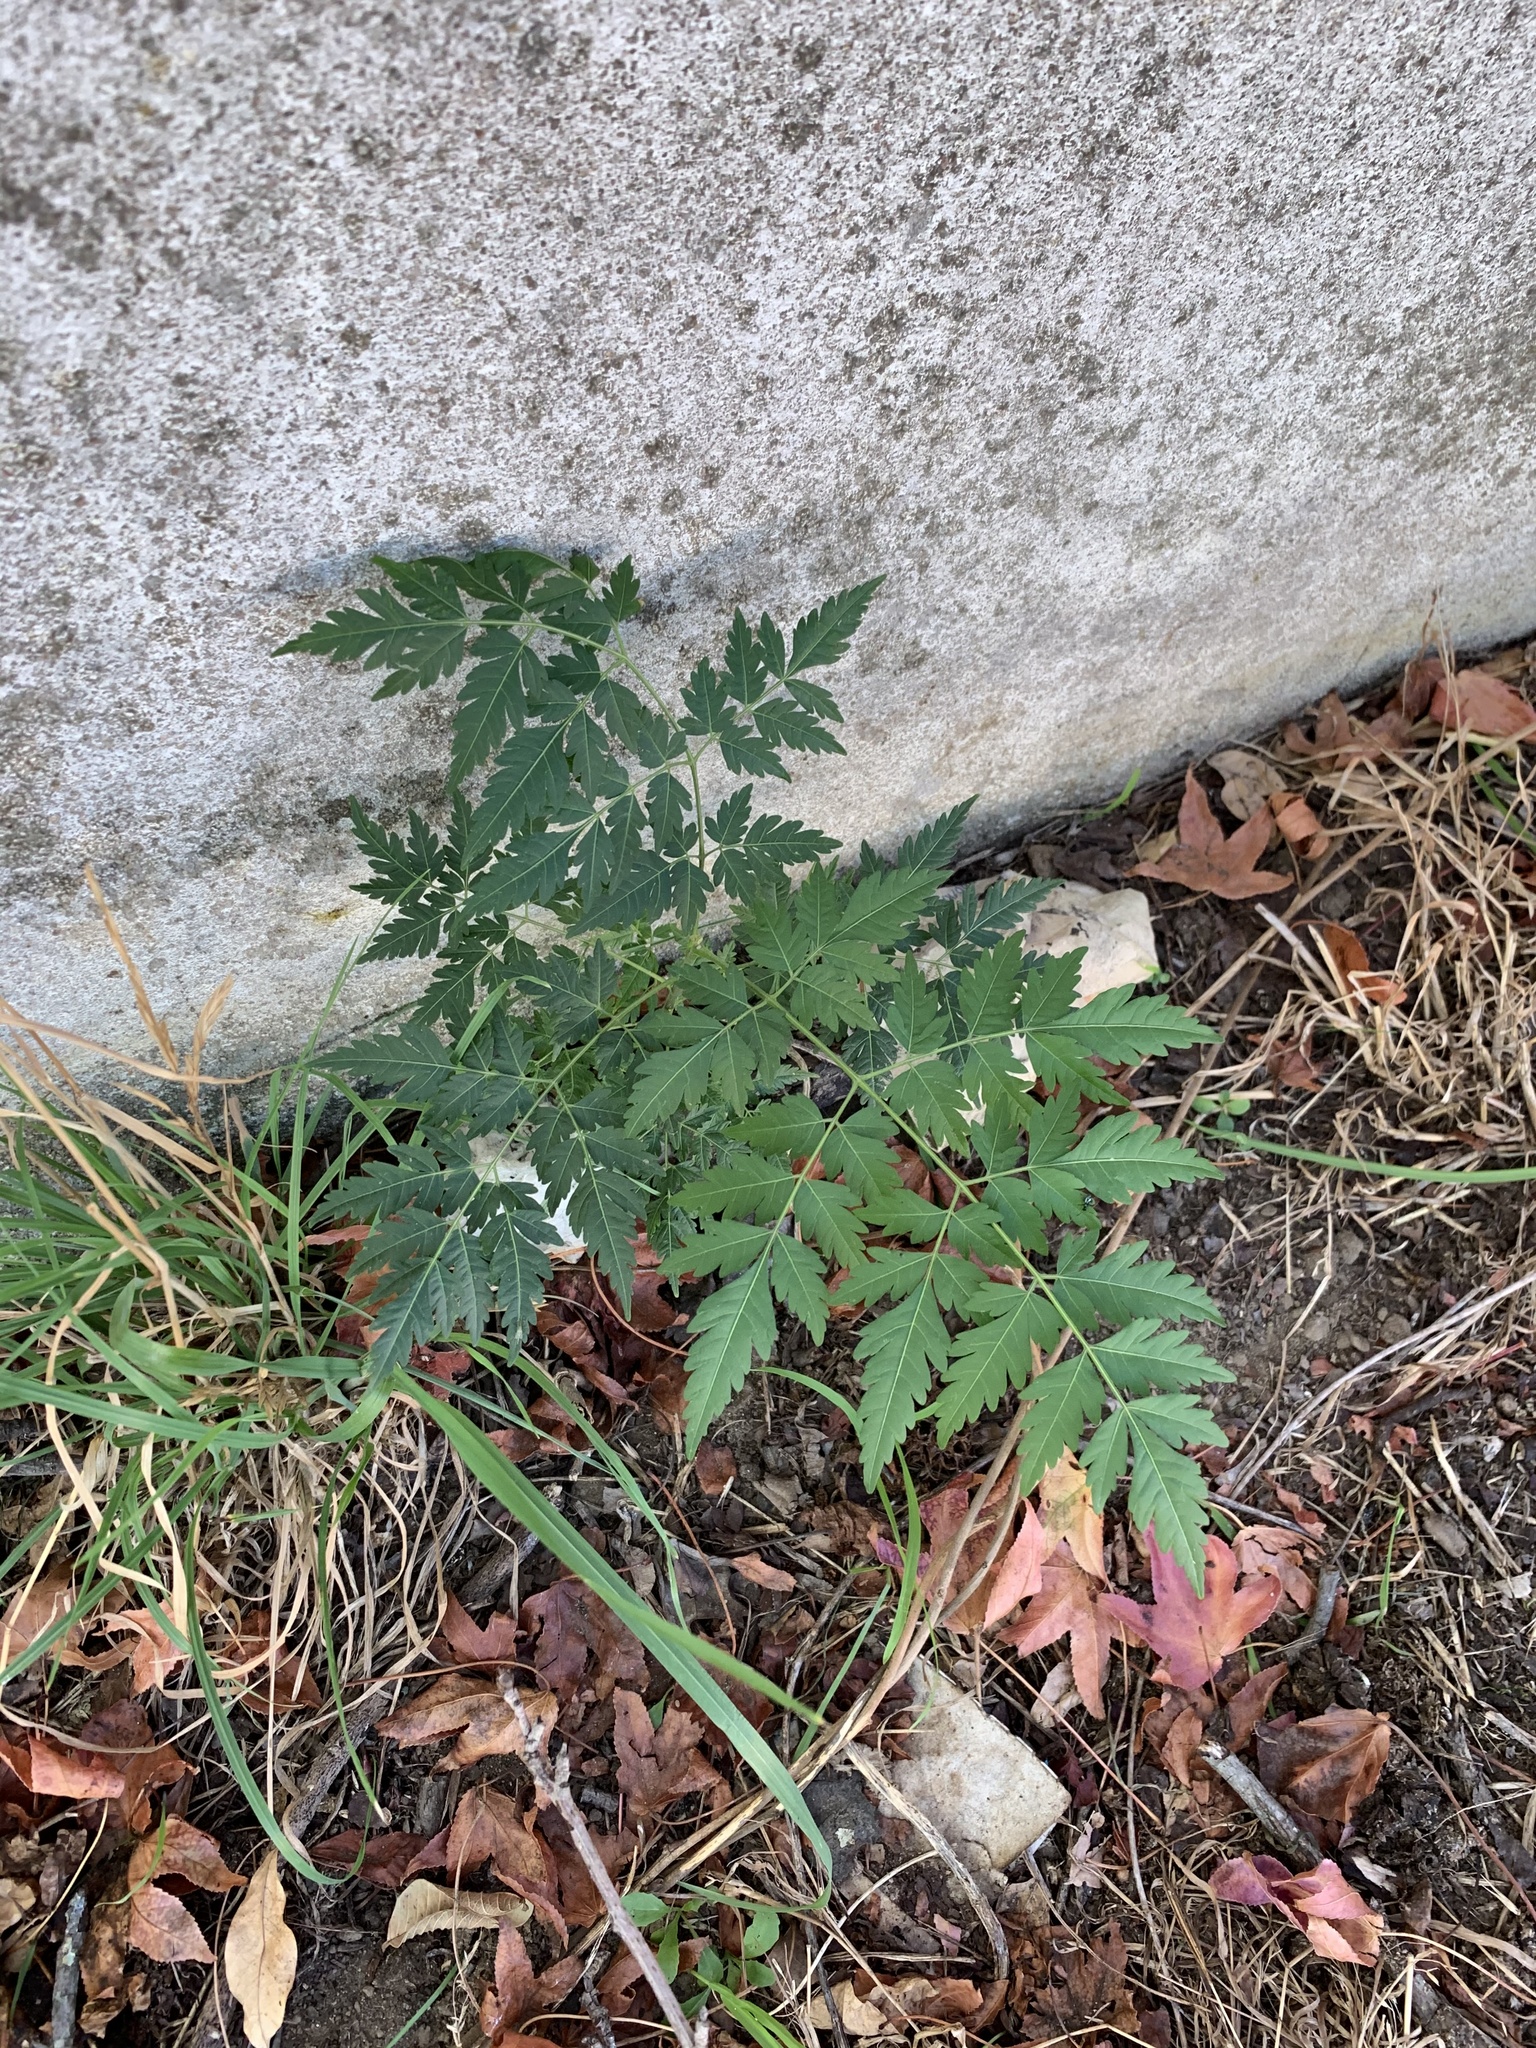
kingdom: Plantae
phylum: Tracheophyta
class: Magnoliopsida
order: Sapindales
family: Meliaceae
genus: Melia
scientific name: Melia azedarach
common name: Chinaberrytree
